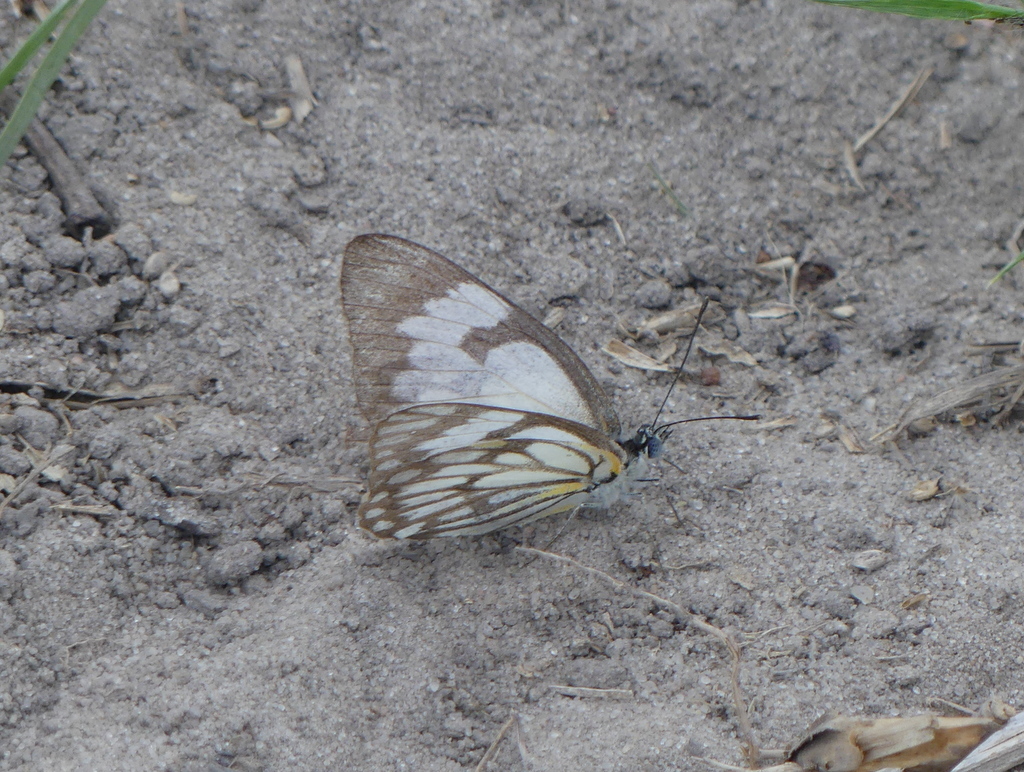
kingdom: Animalia
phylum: Arthropoda
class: Insecta
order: Lepidoptera
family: Pieridae
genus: Belenois
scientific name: Belenois aurota
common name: Brown-veined white
